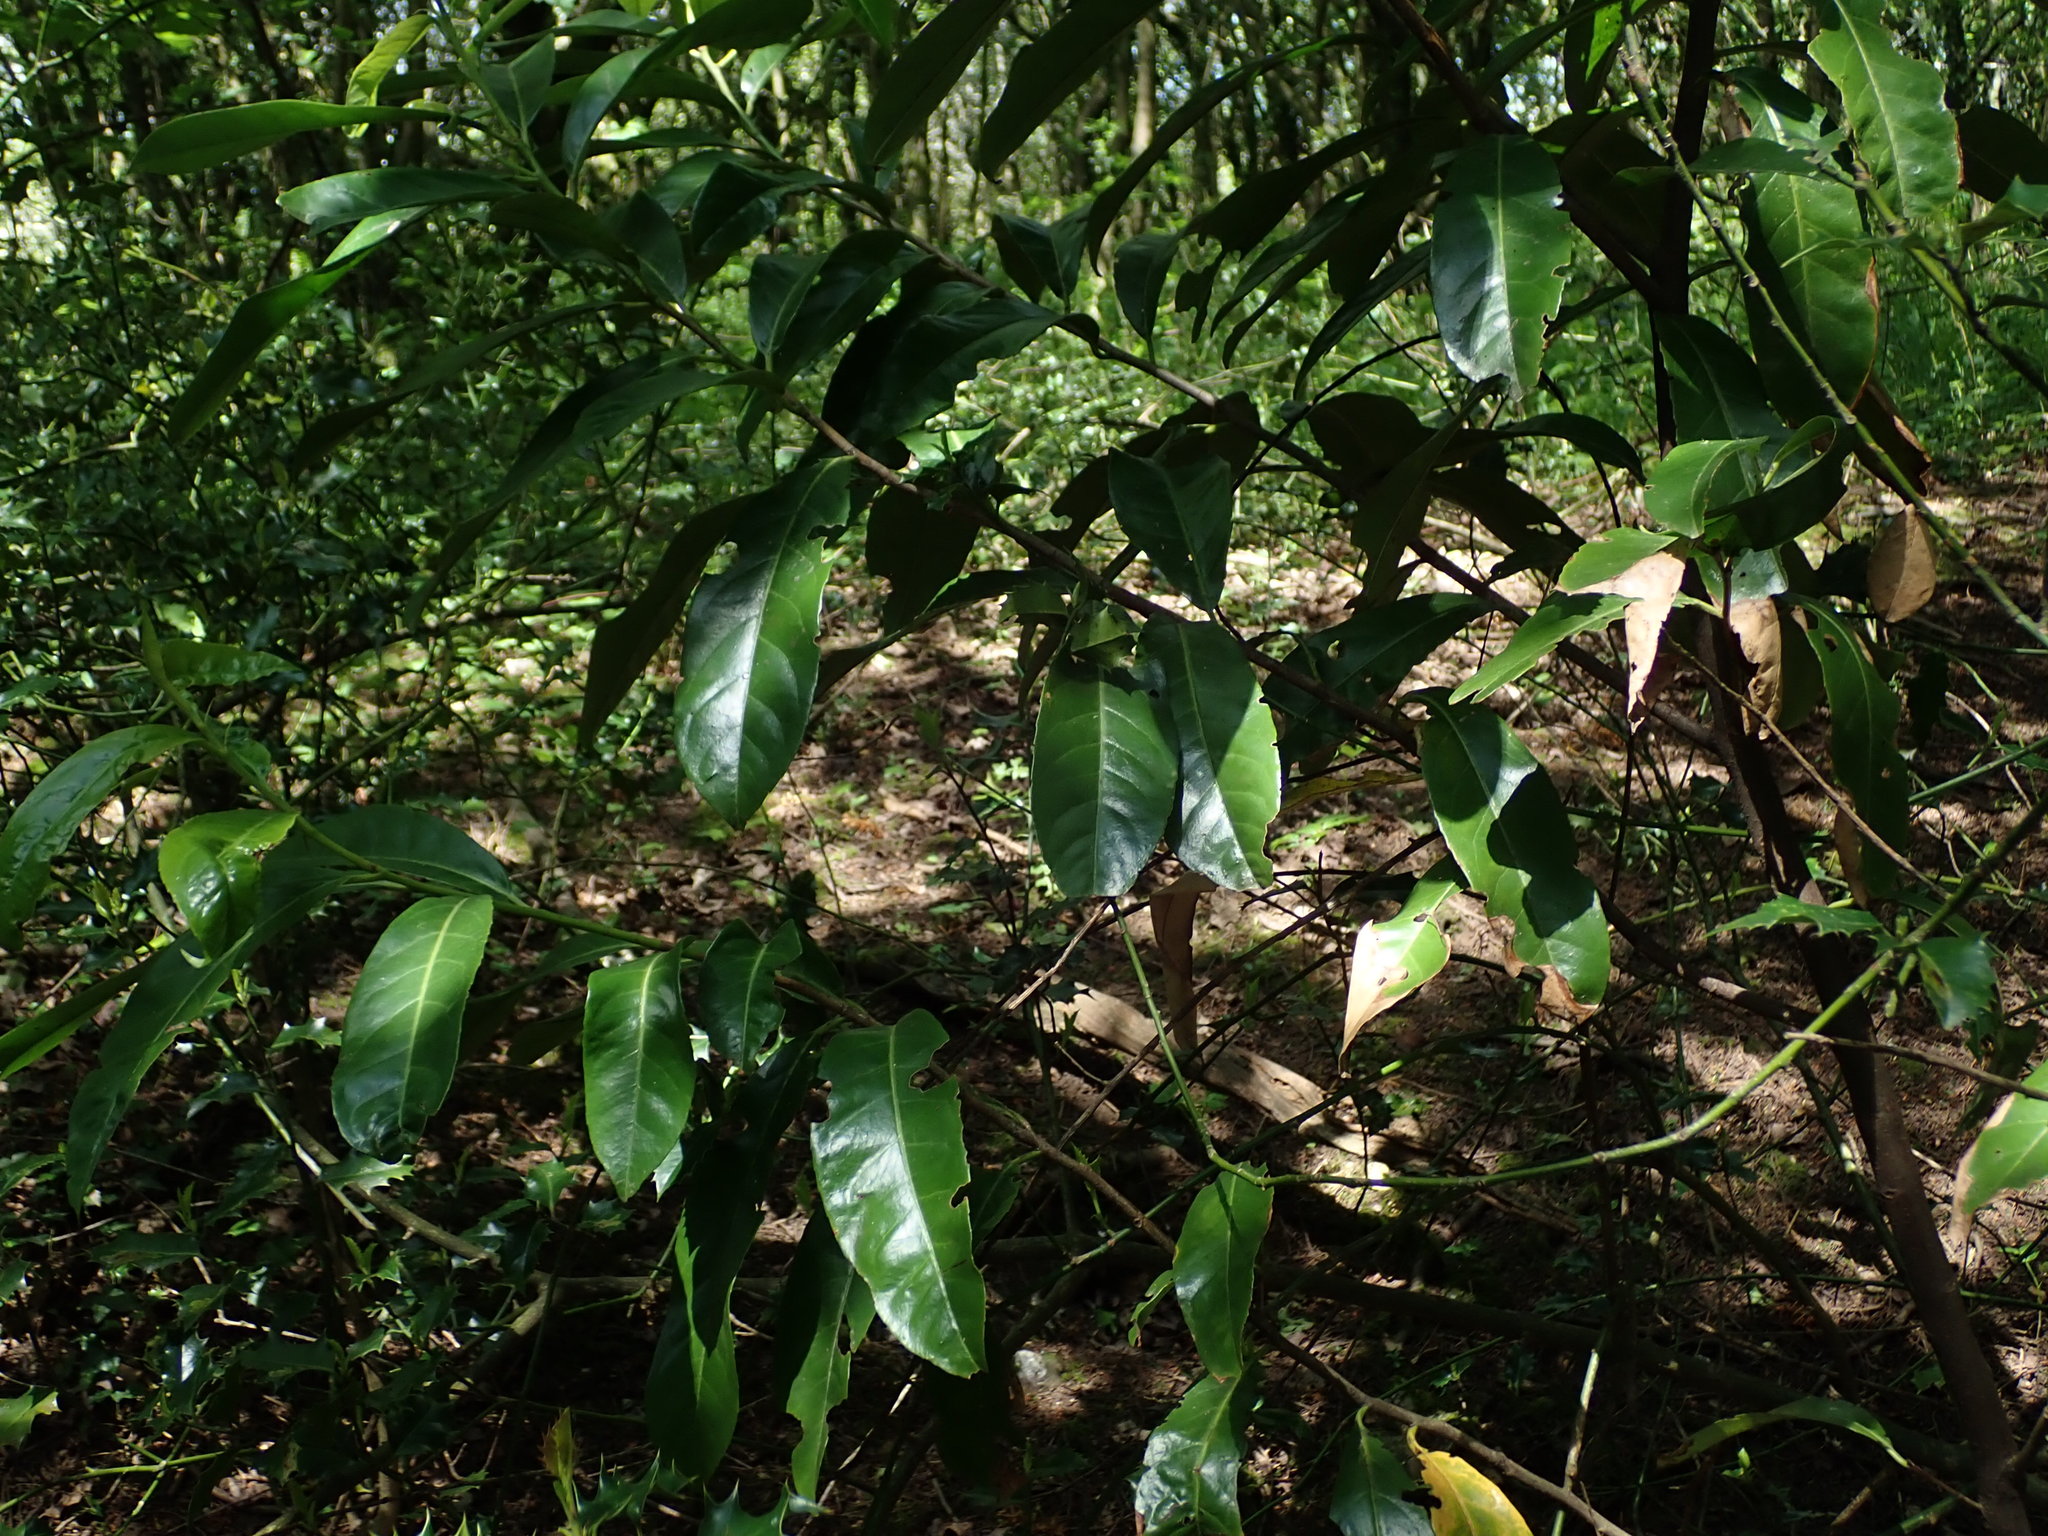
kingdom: Plantae
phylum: Tracheophyta
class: Magnoliopsida
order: Rosales
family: Rosaceae
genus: Prunus
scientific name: Prunus laurocerasus
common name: Cherry laurel
